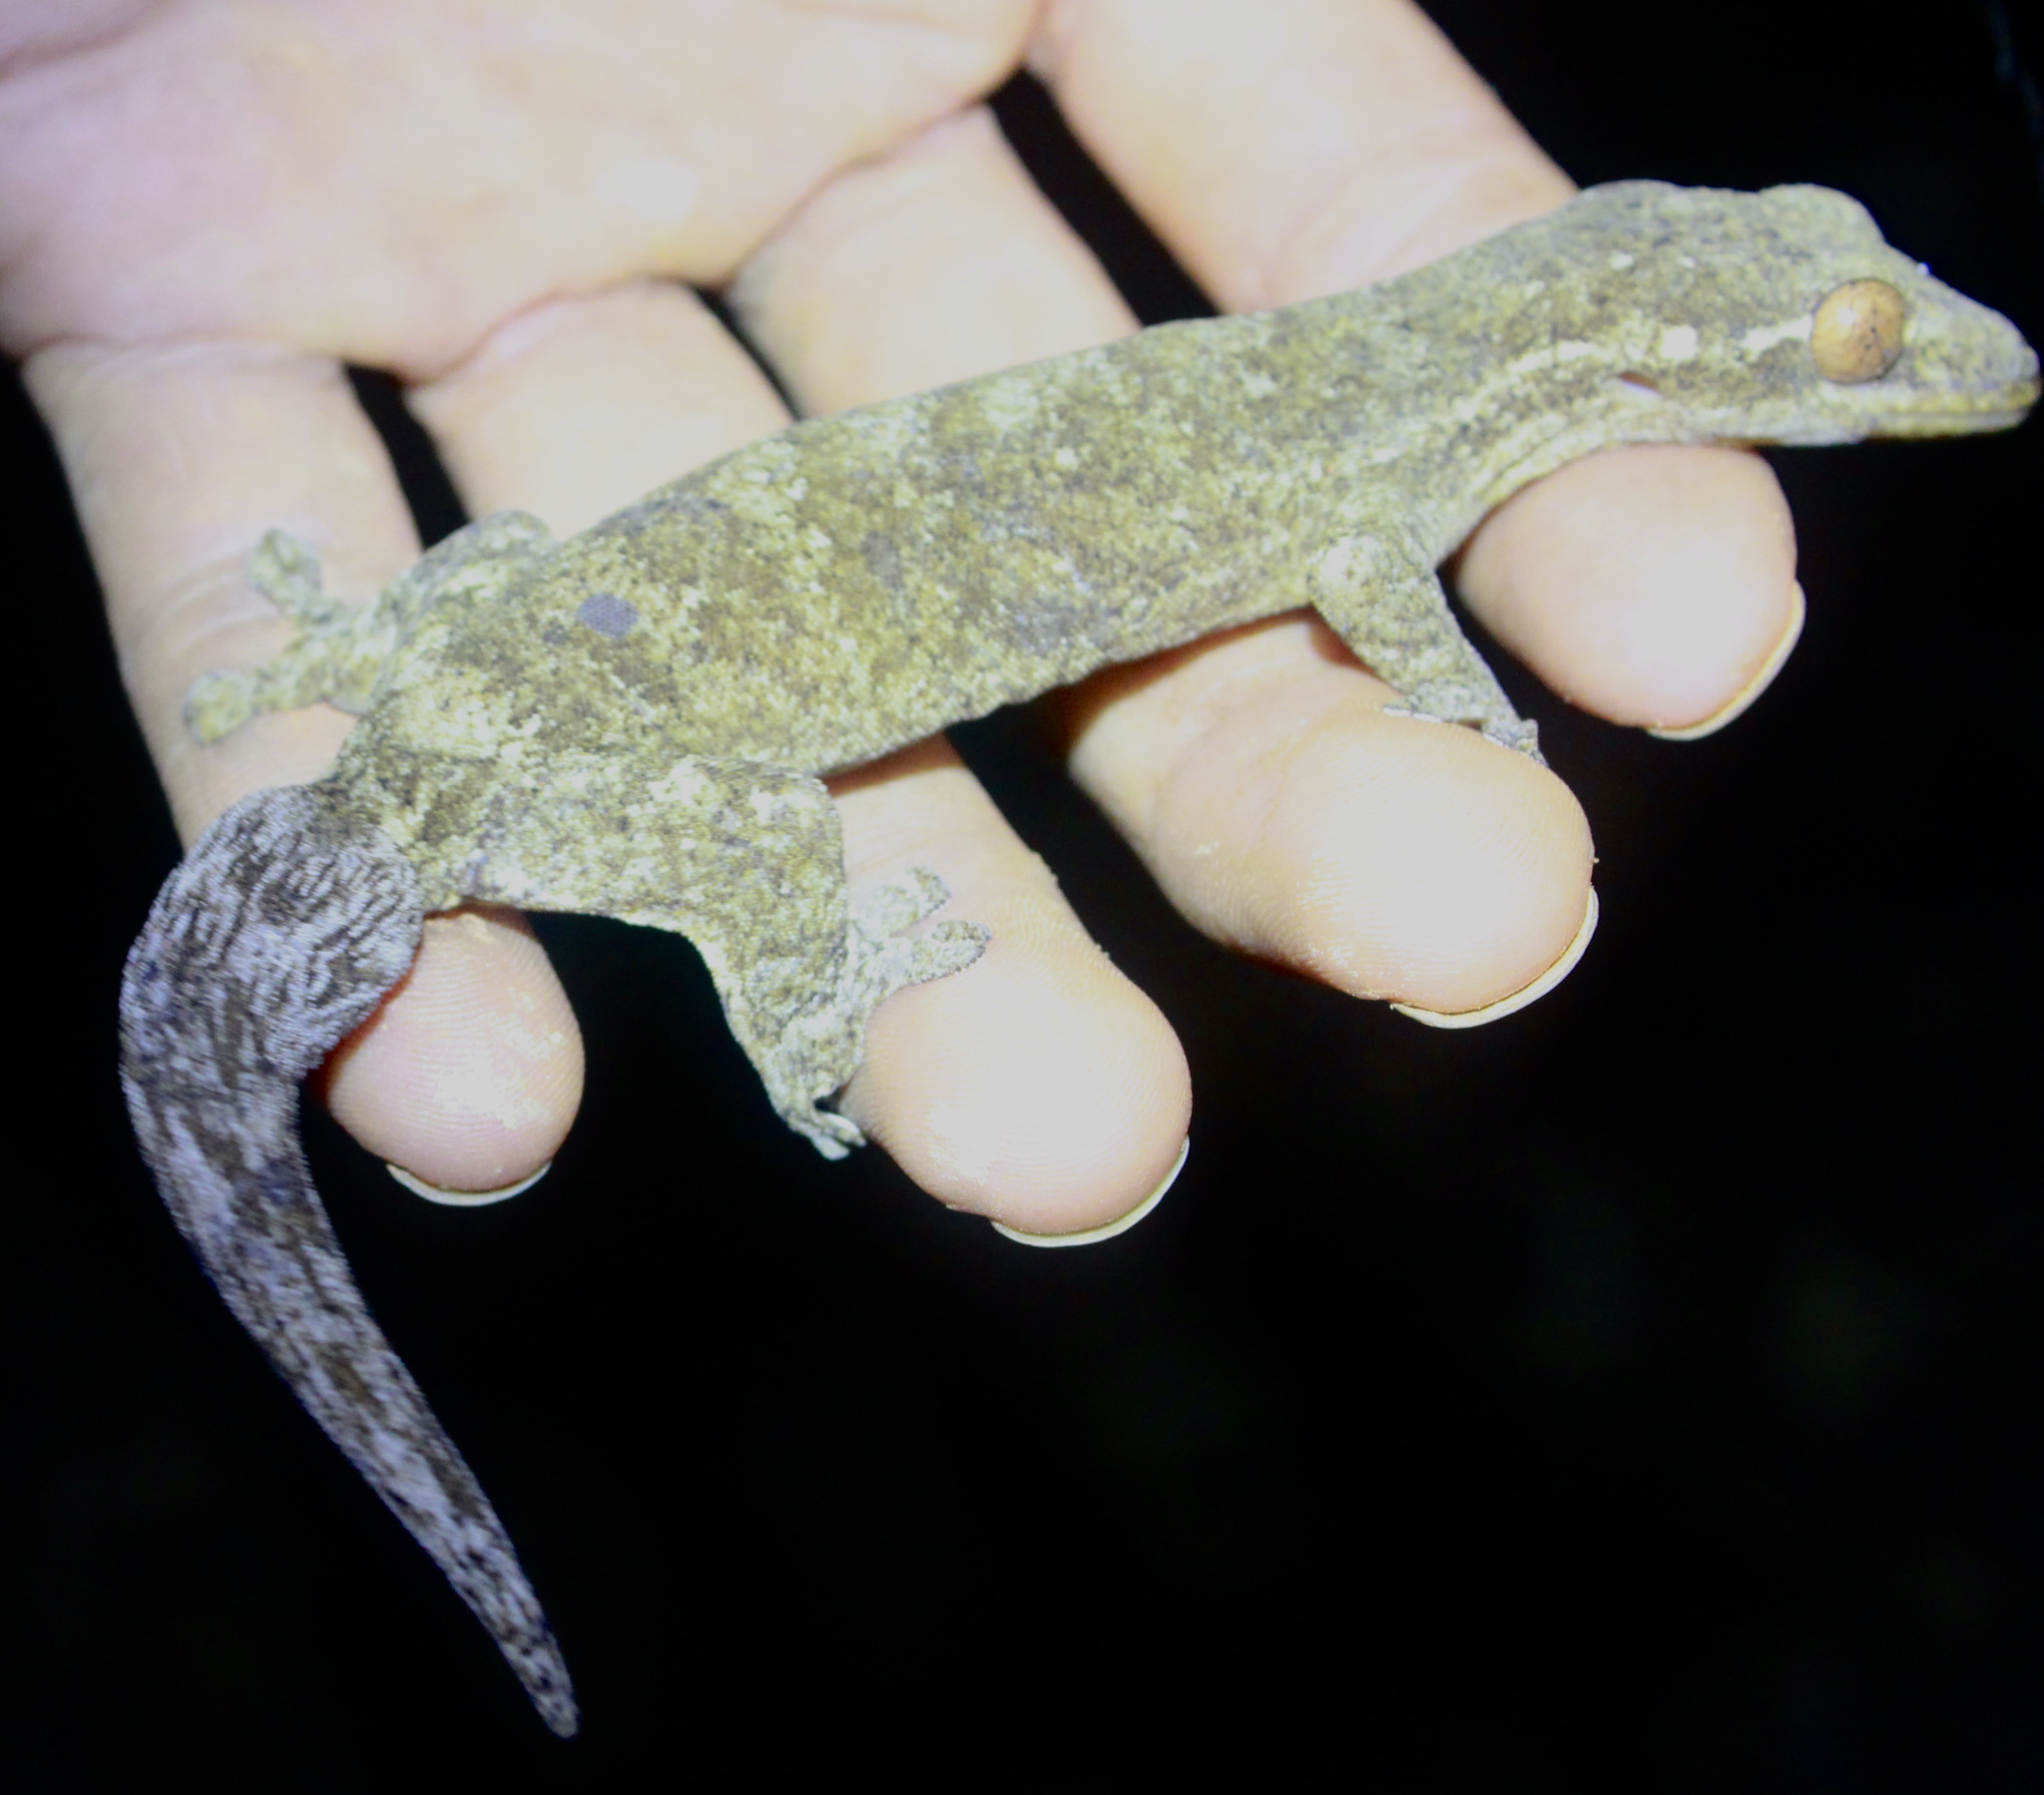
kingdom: Animalia
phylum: Chordata
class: Squamata
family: Phyllodactylidae
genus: Thecadactylus
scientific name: Thecadactylus rapicauda
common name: Turnip-tailed gecko
